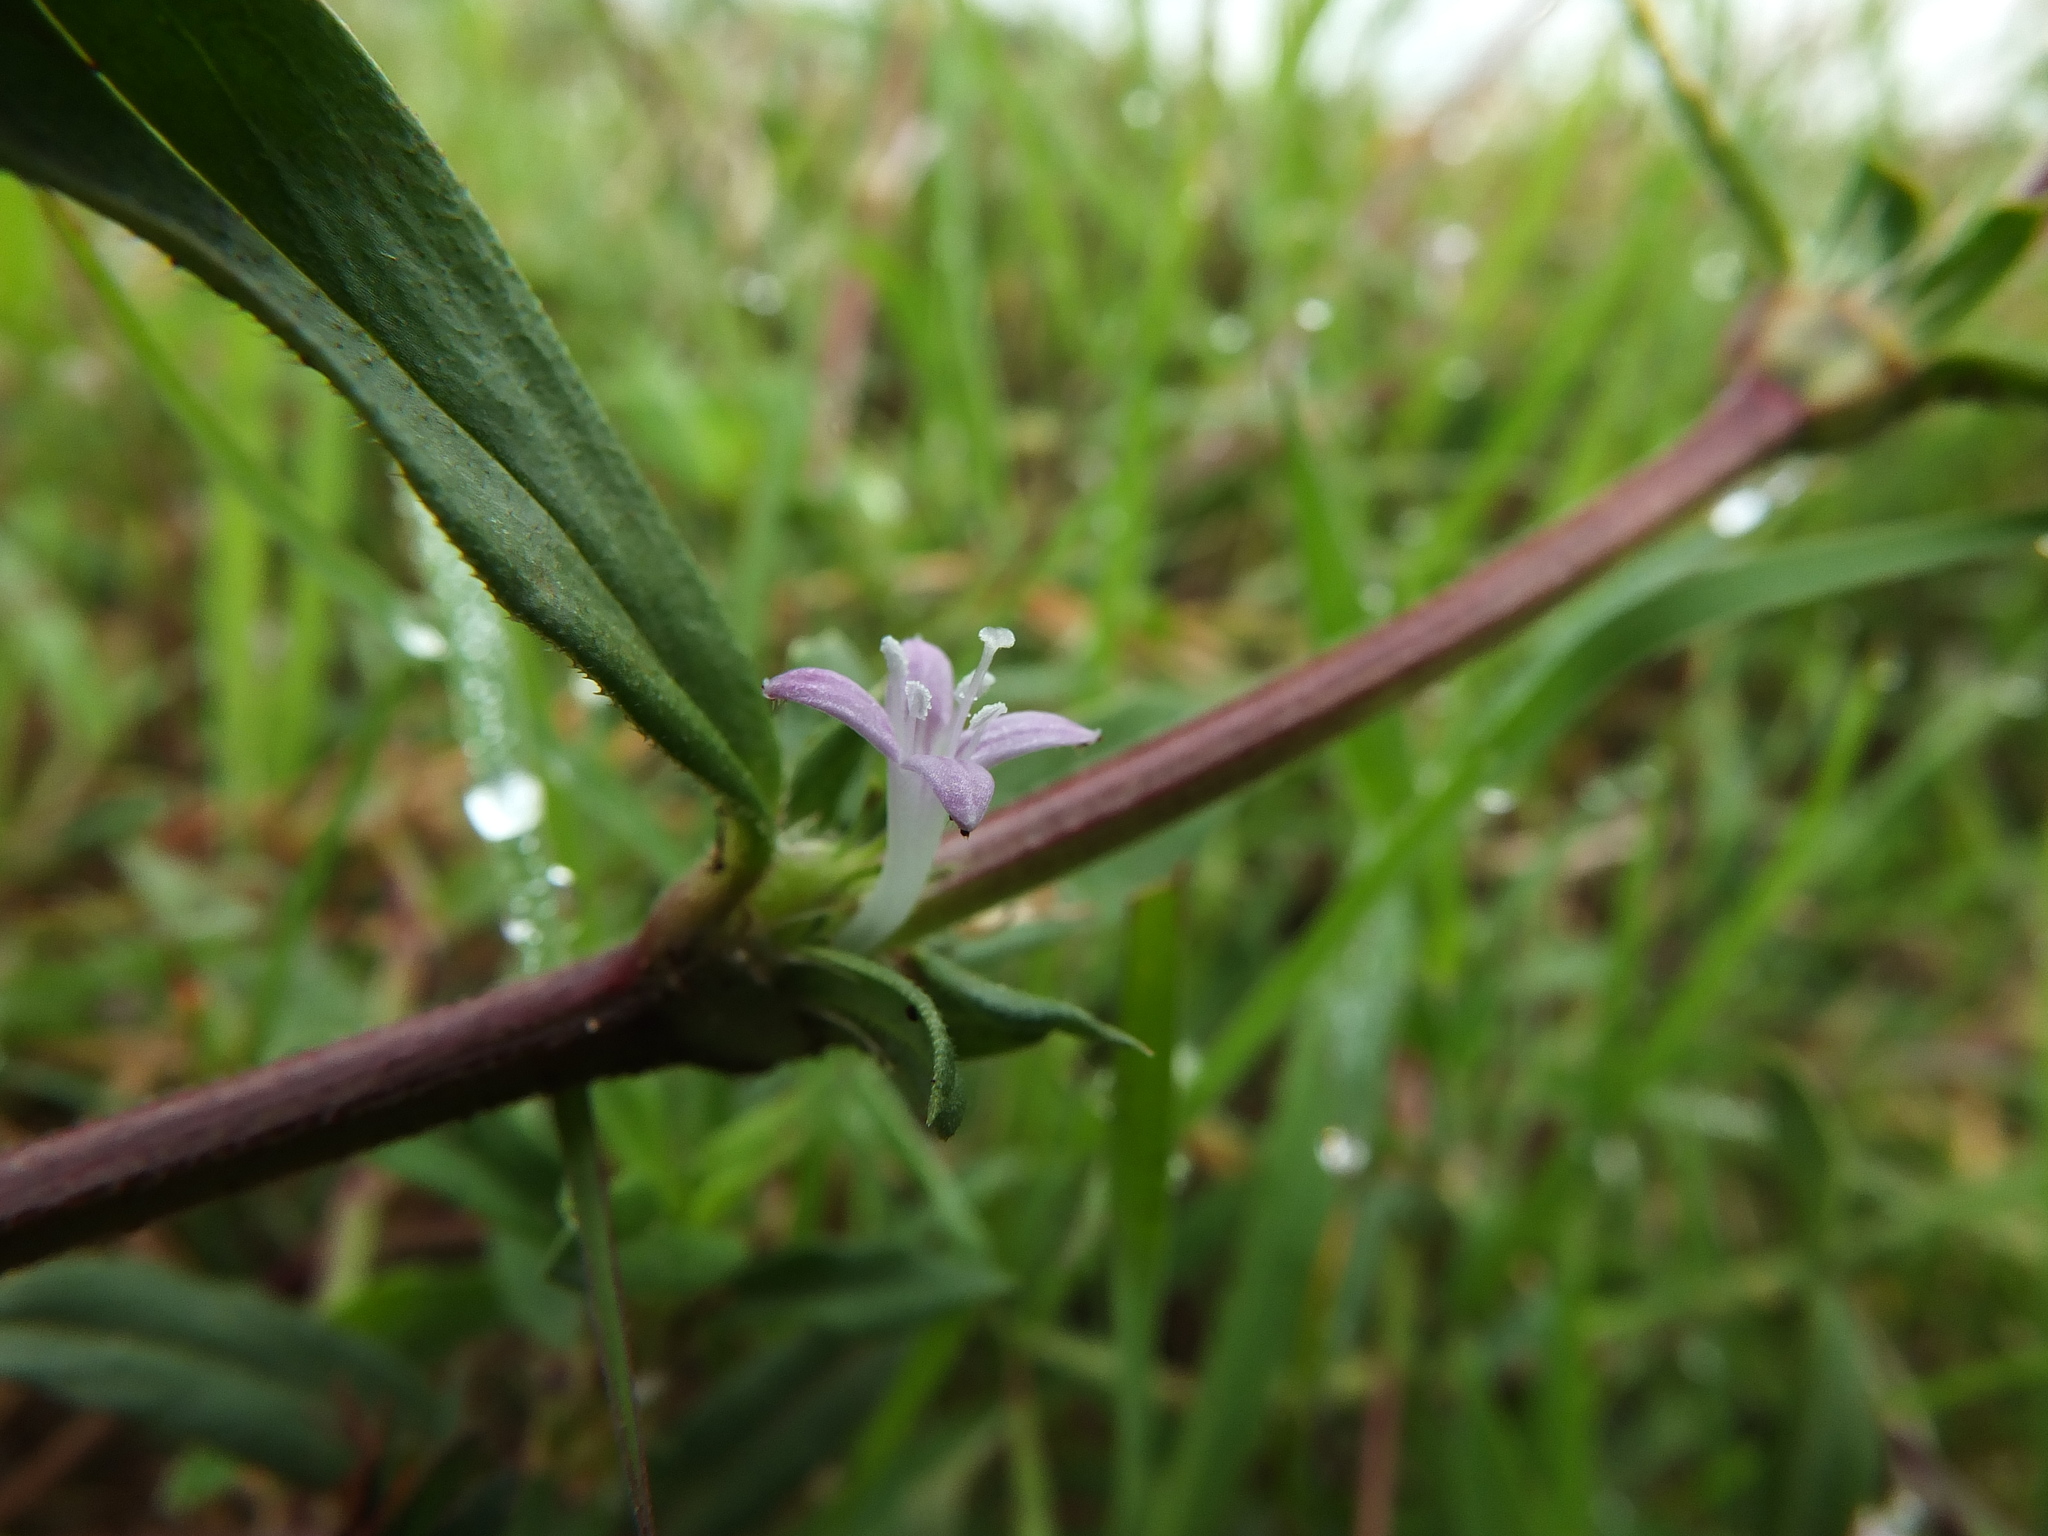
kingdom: Plantae
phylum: Tracheophyta
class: Magnoliopsida
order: Gentianales
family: Rubiaceae
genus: Spermacoce
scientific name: Spermacoce articularis
